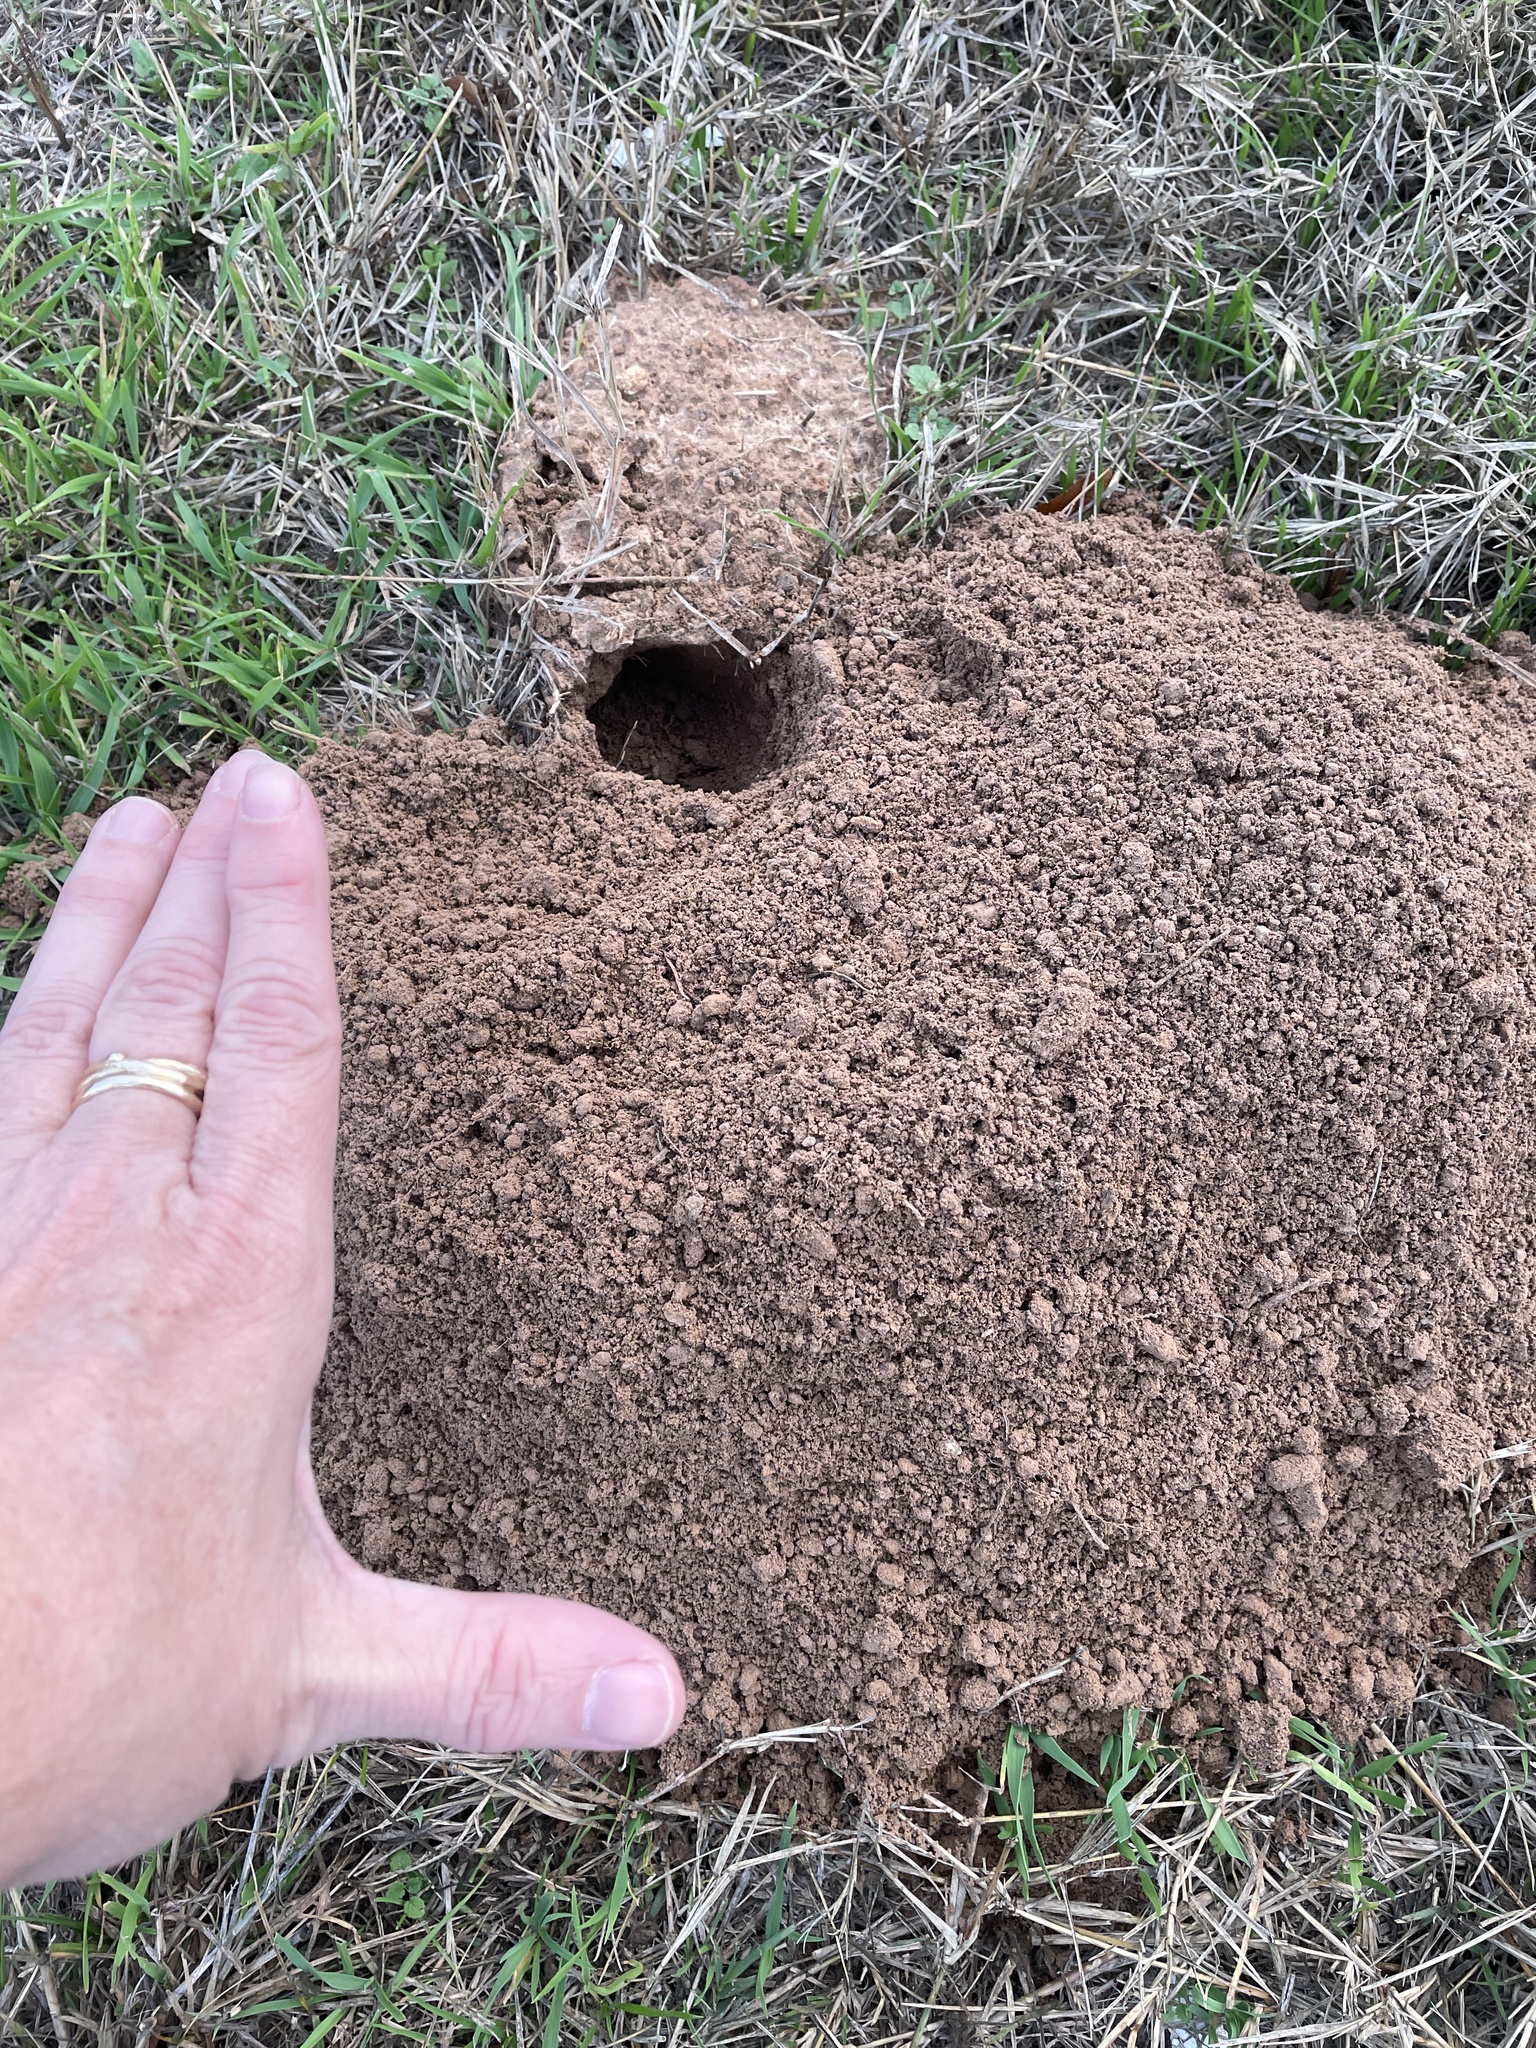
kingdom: Animalia
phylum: Chordata
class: Mammalia
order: Rodentia
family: Geomyidae
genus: Geomys
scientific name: Geomys bursarius
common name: Plains pocket gopher
